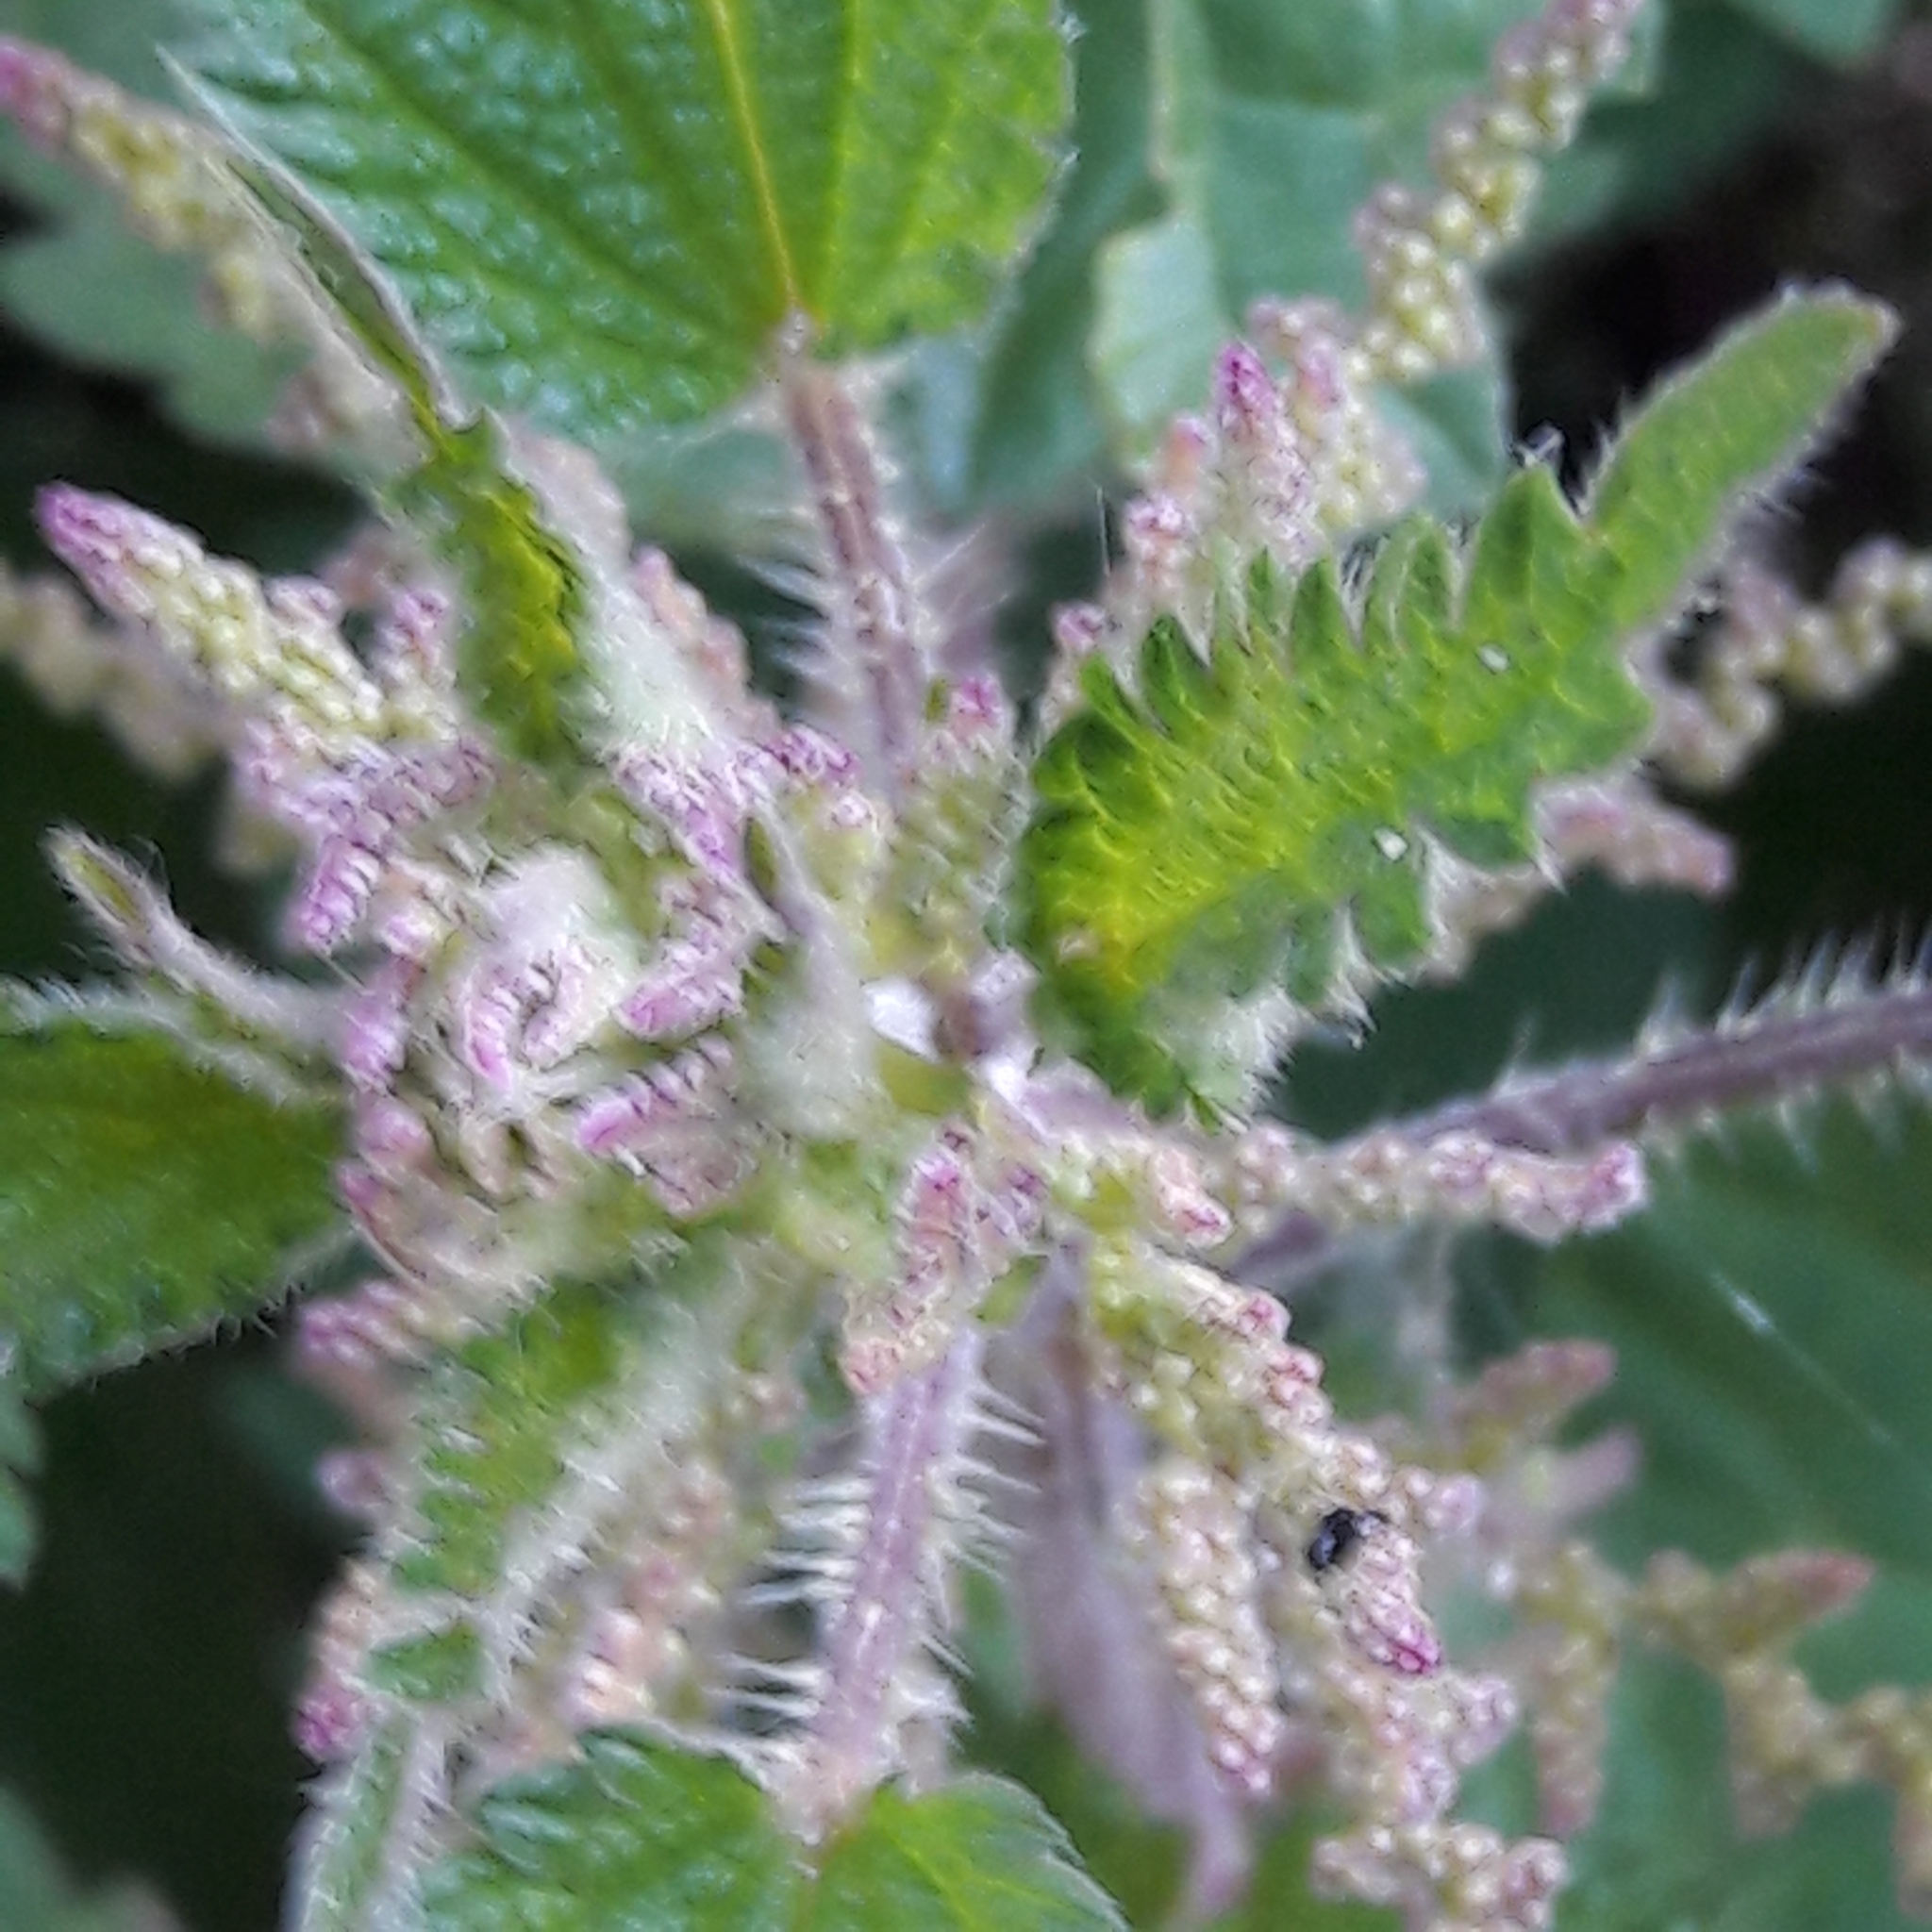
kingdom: Plantae
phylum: Tracheophyta
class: Magnoliopsida
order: Rosales
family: Urticaceae
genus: Urtica
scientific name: Urtica dioica
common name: Common nettle
